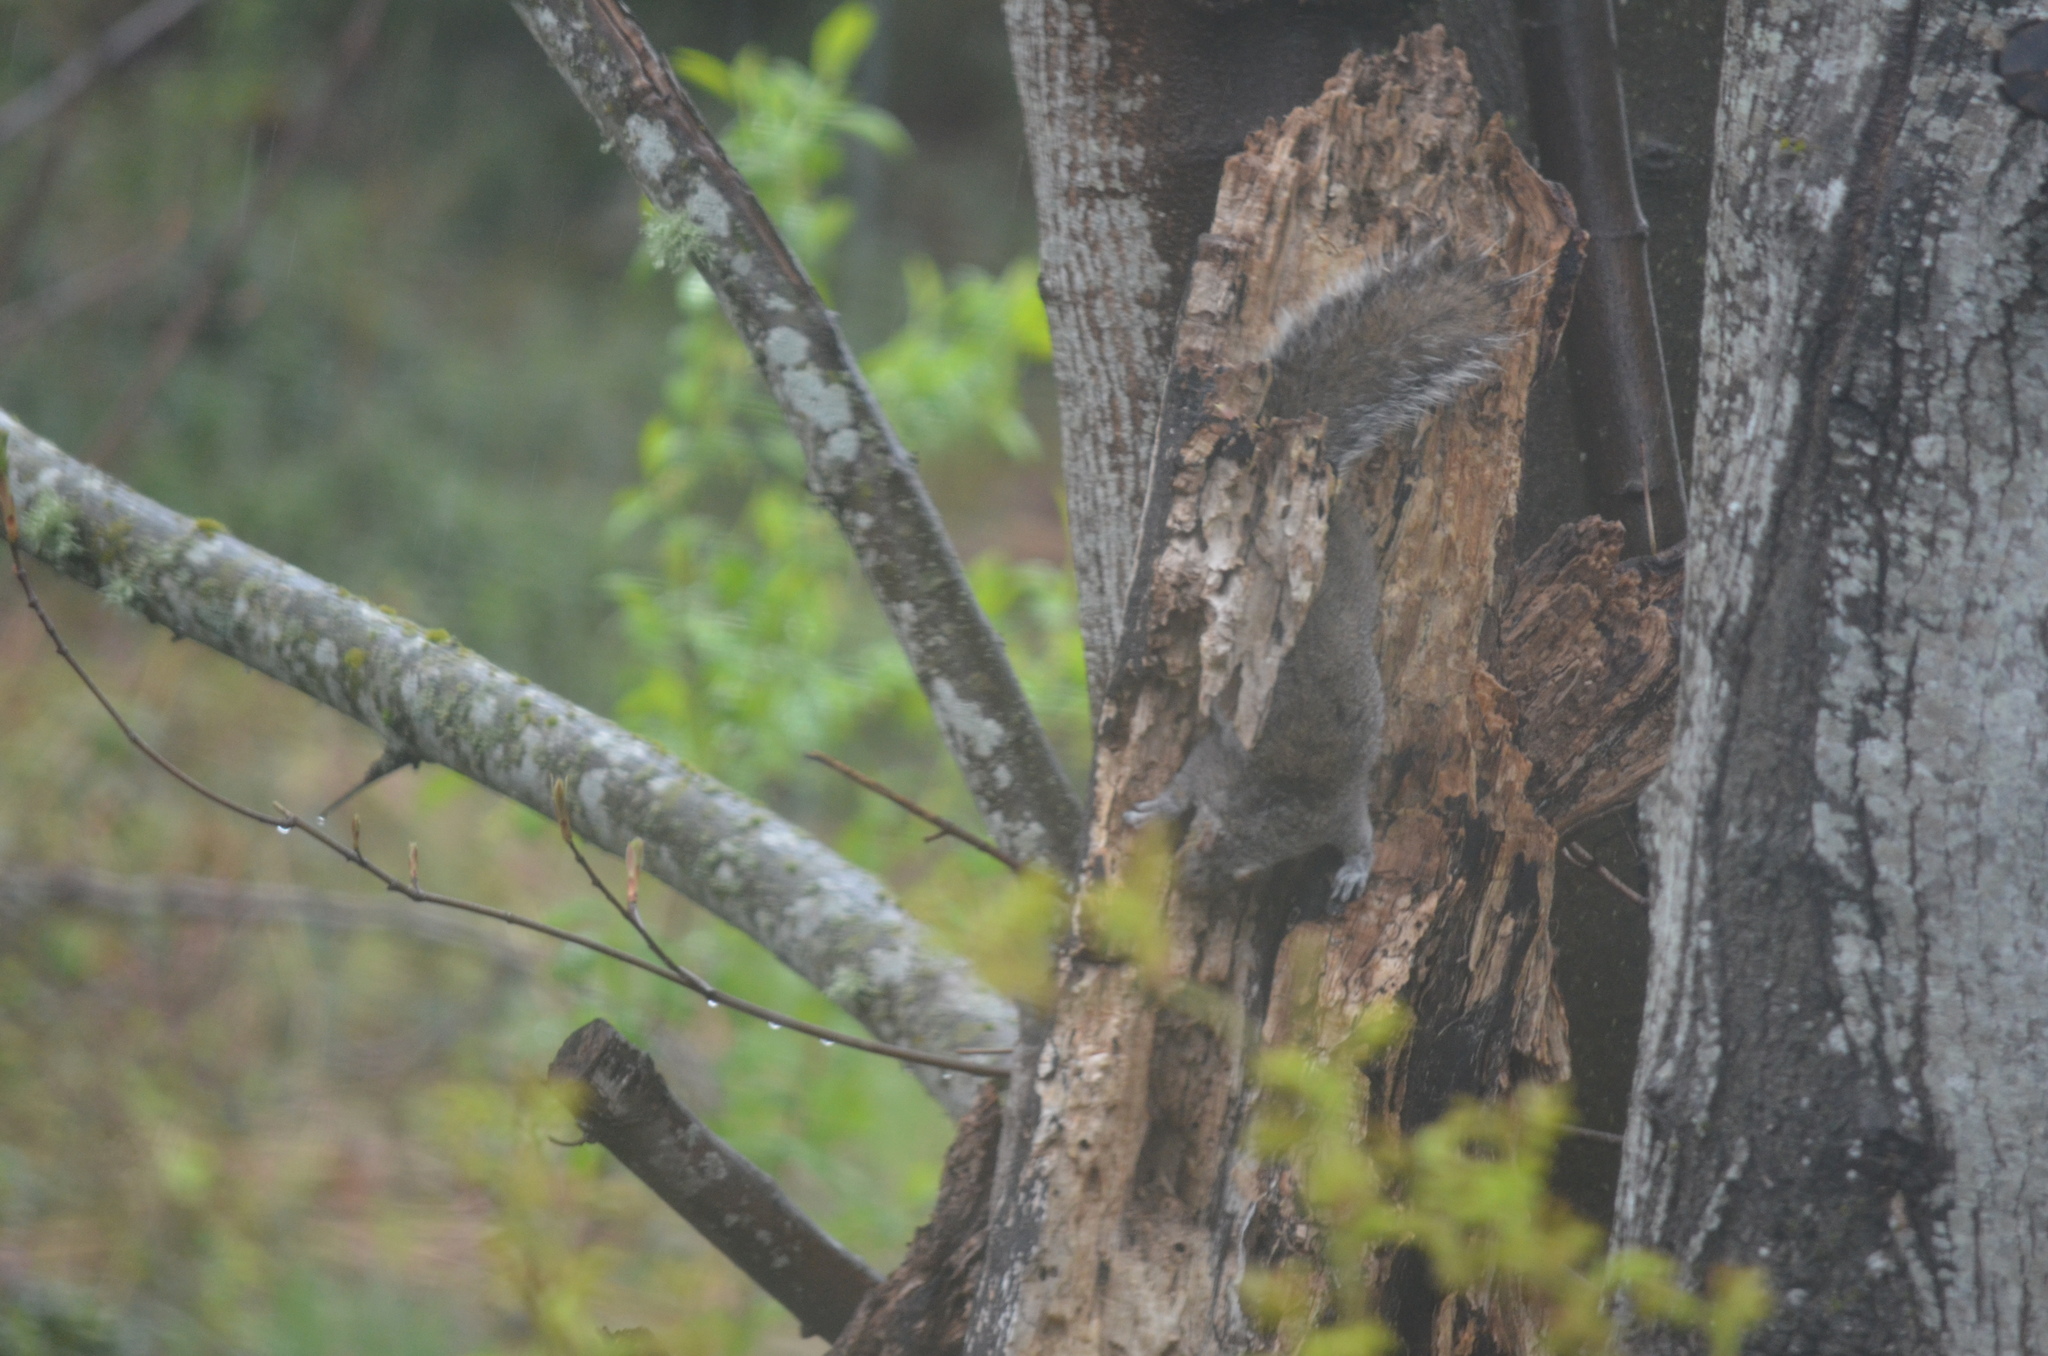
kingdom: Animalia
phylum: Chordata
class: Mammalia
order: Rodentia
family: Sciuridae
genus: Sciurus
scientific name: Sciurus carolinensis
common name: Eastern gray squirrel
